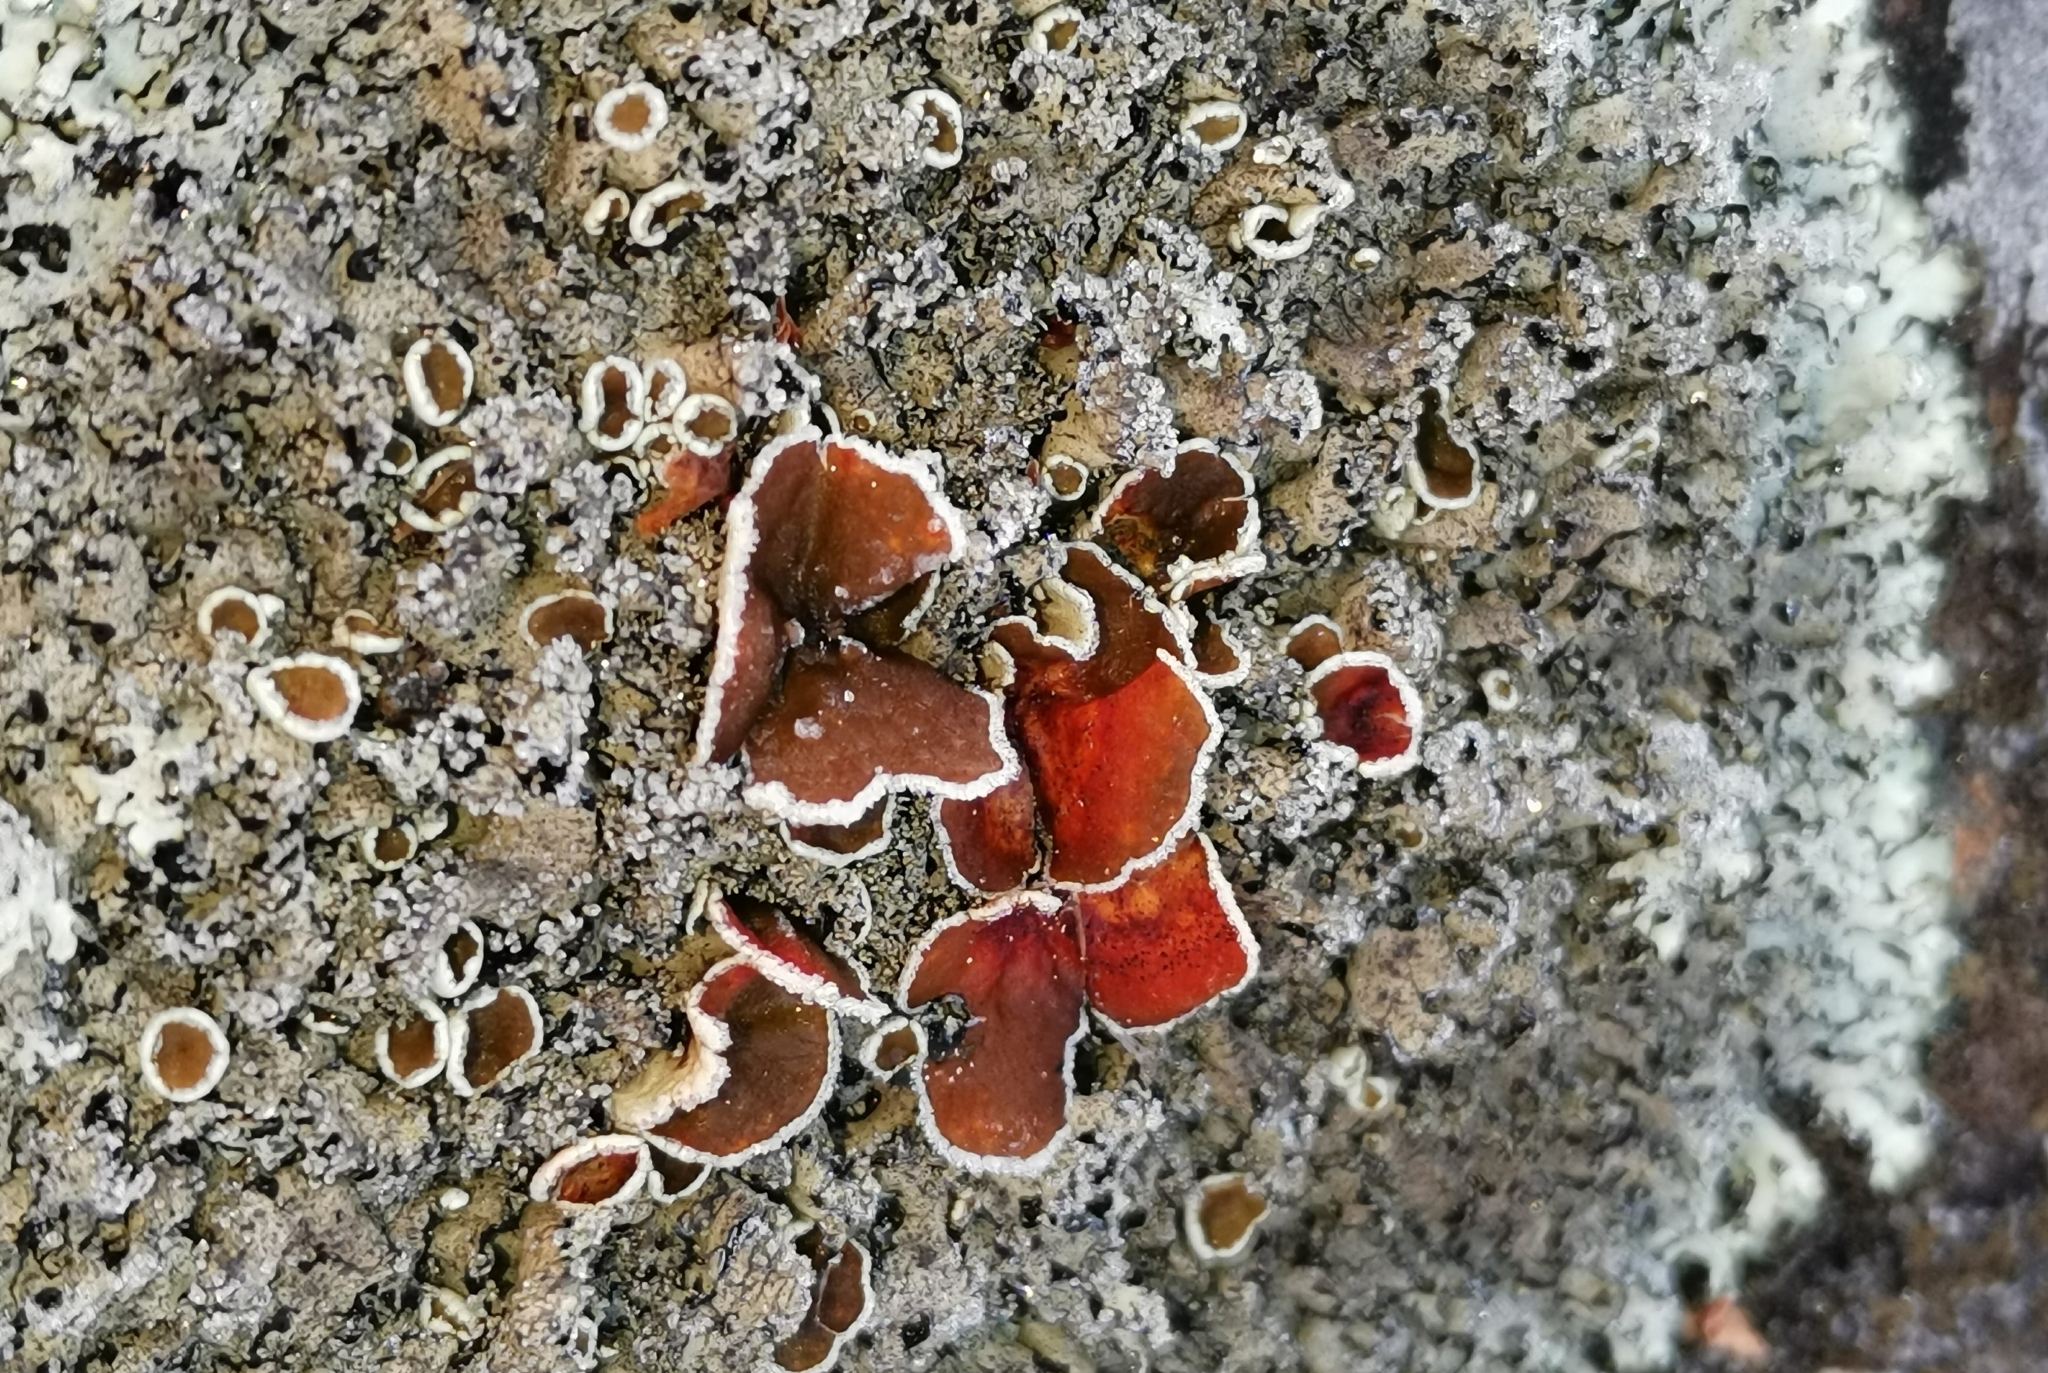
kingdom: Fungi
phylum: Ascomycota
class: Lecanoromycetes
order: Lecanorales
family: Parmeliaceae
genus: Xanthoparmelia
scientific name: Xanthoparmelia conspersa
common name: Peppered rock shield
